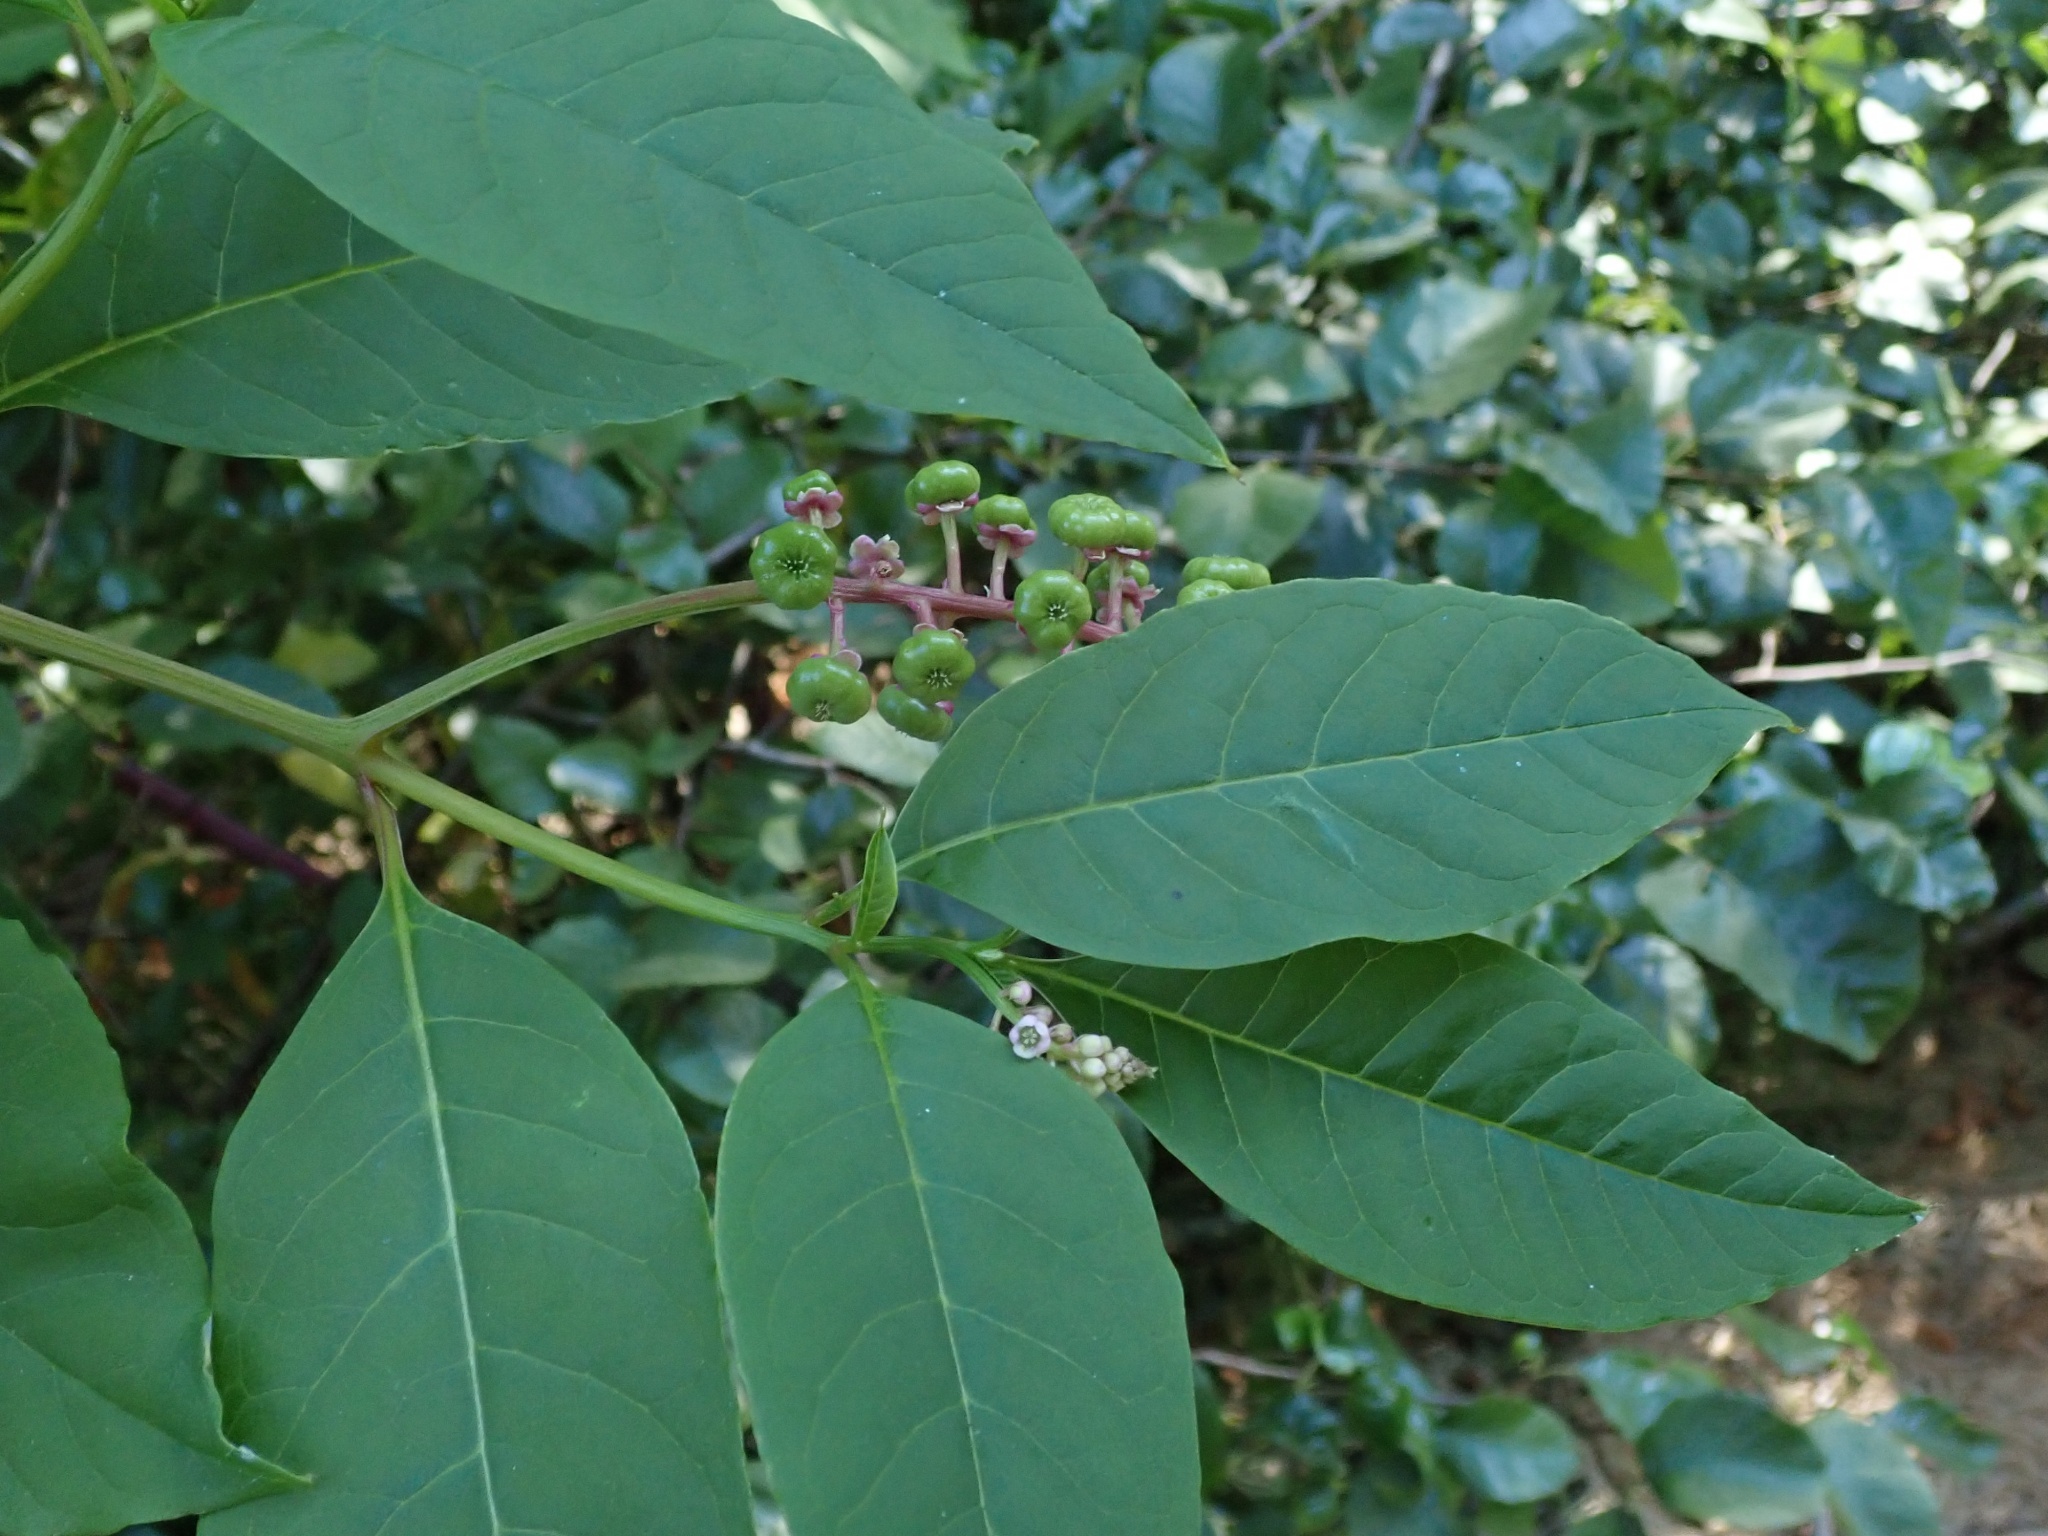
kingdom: Plantae
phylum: Tracheophyta
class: Magnoliopsida
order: Caryophyllales
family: Phytolaccaceae
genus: Phytolacca
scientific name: Phytolacca americana
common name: American pokeweed
